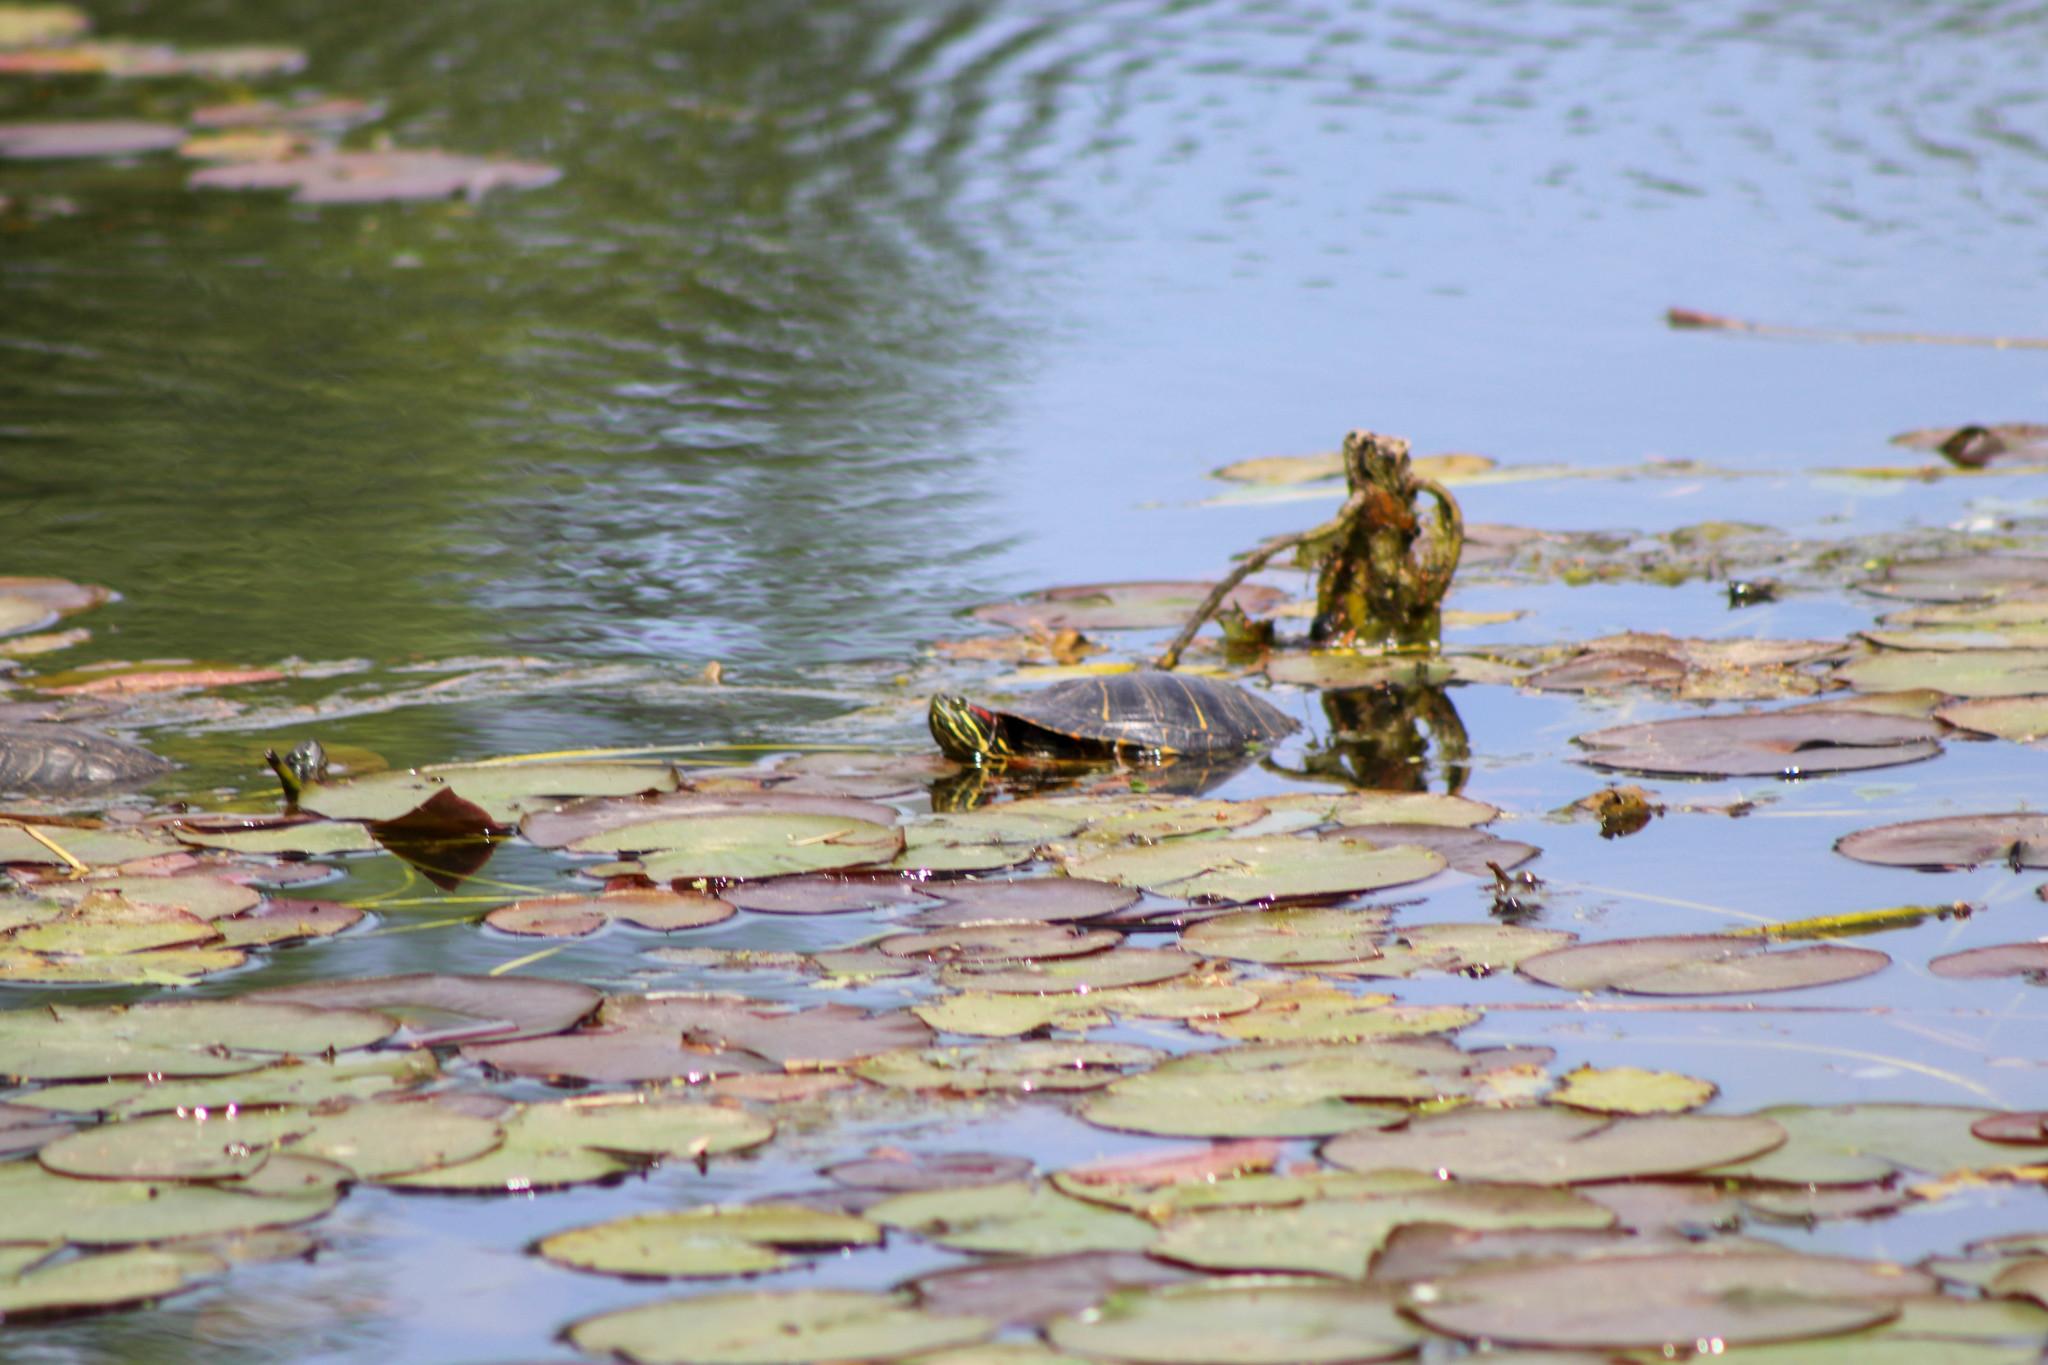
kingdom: Animalia
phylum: Chordata
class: Testudines
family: Emydidae
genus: Trachemys
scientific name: Trachemys scripta
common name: Slider
